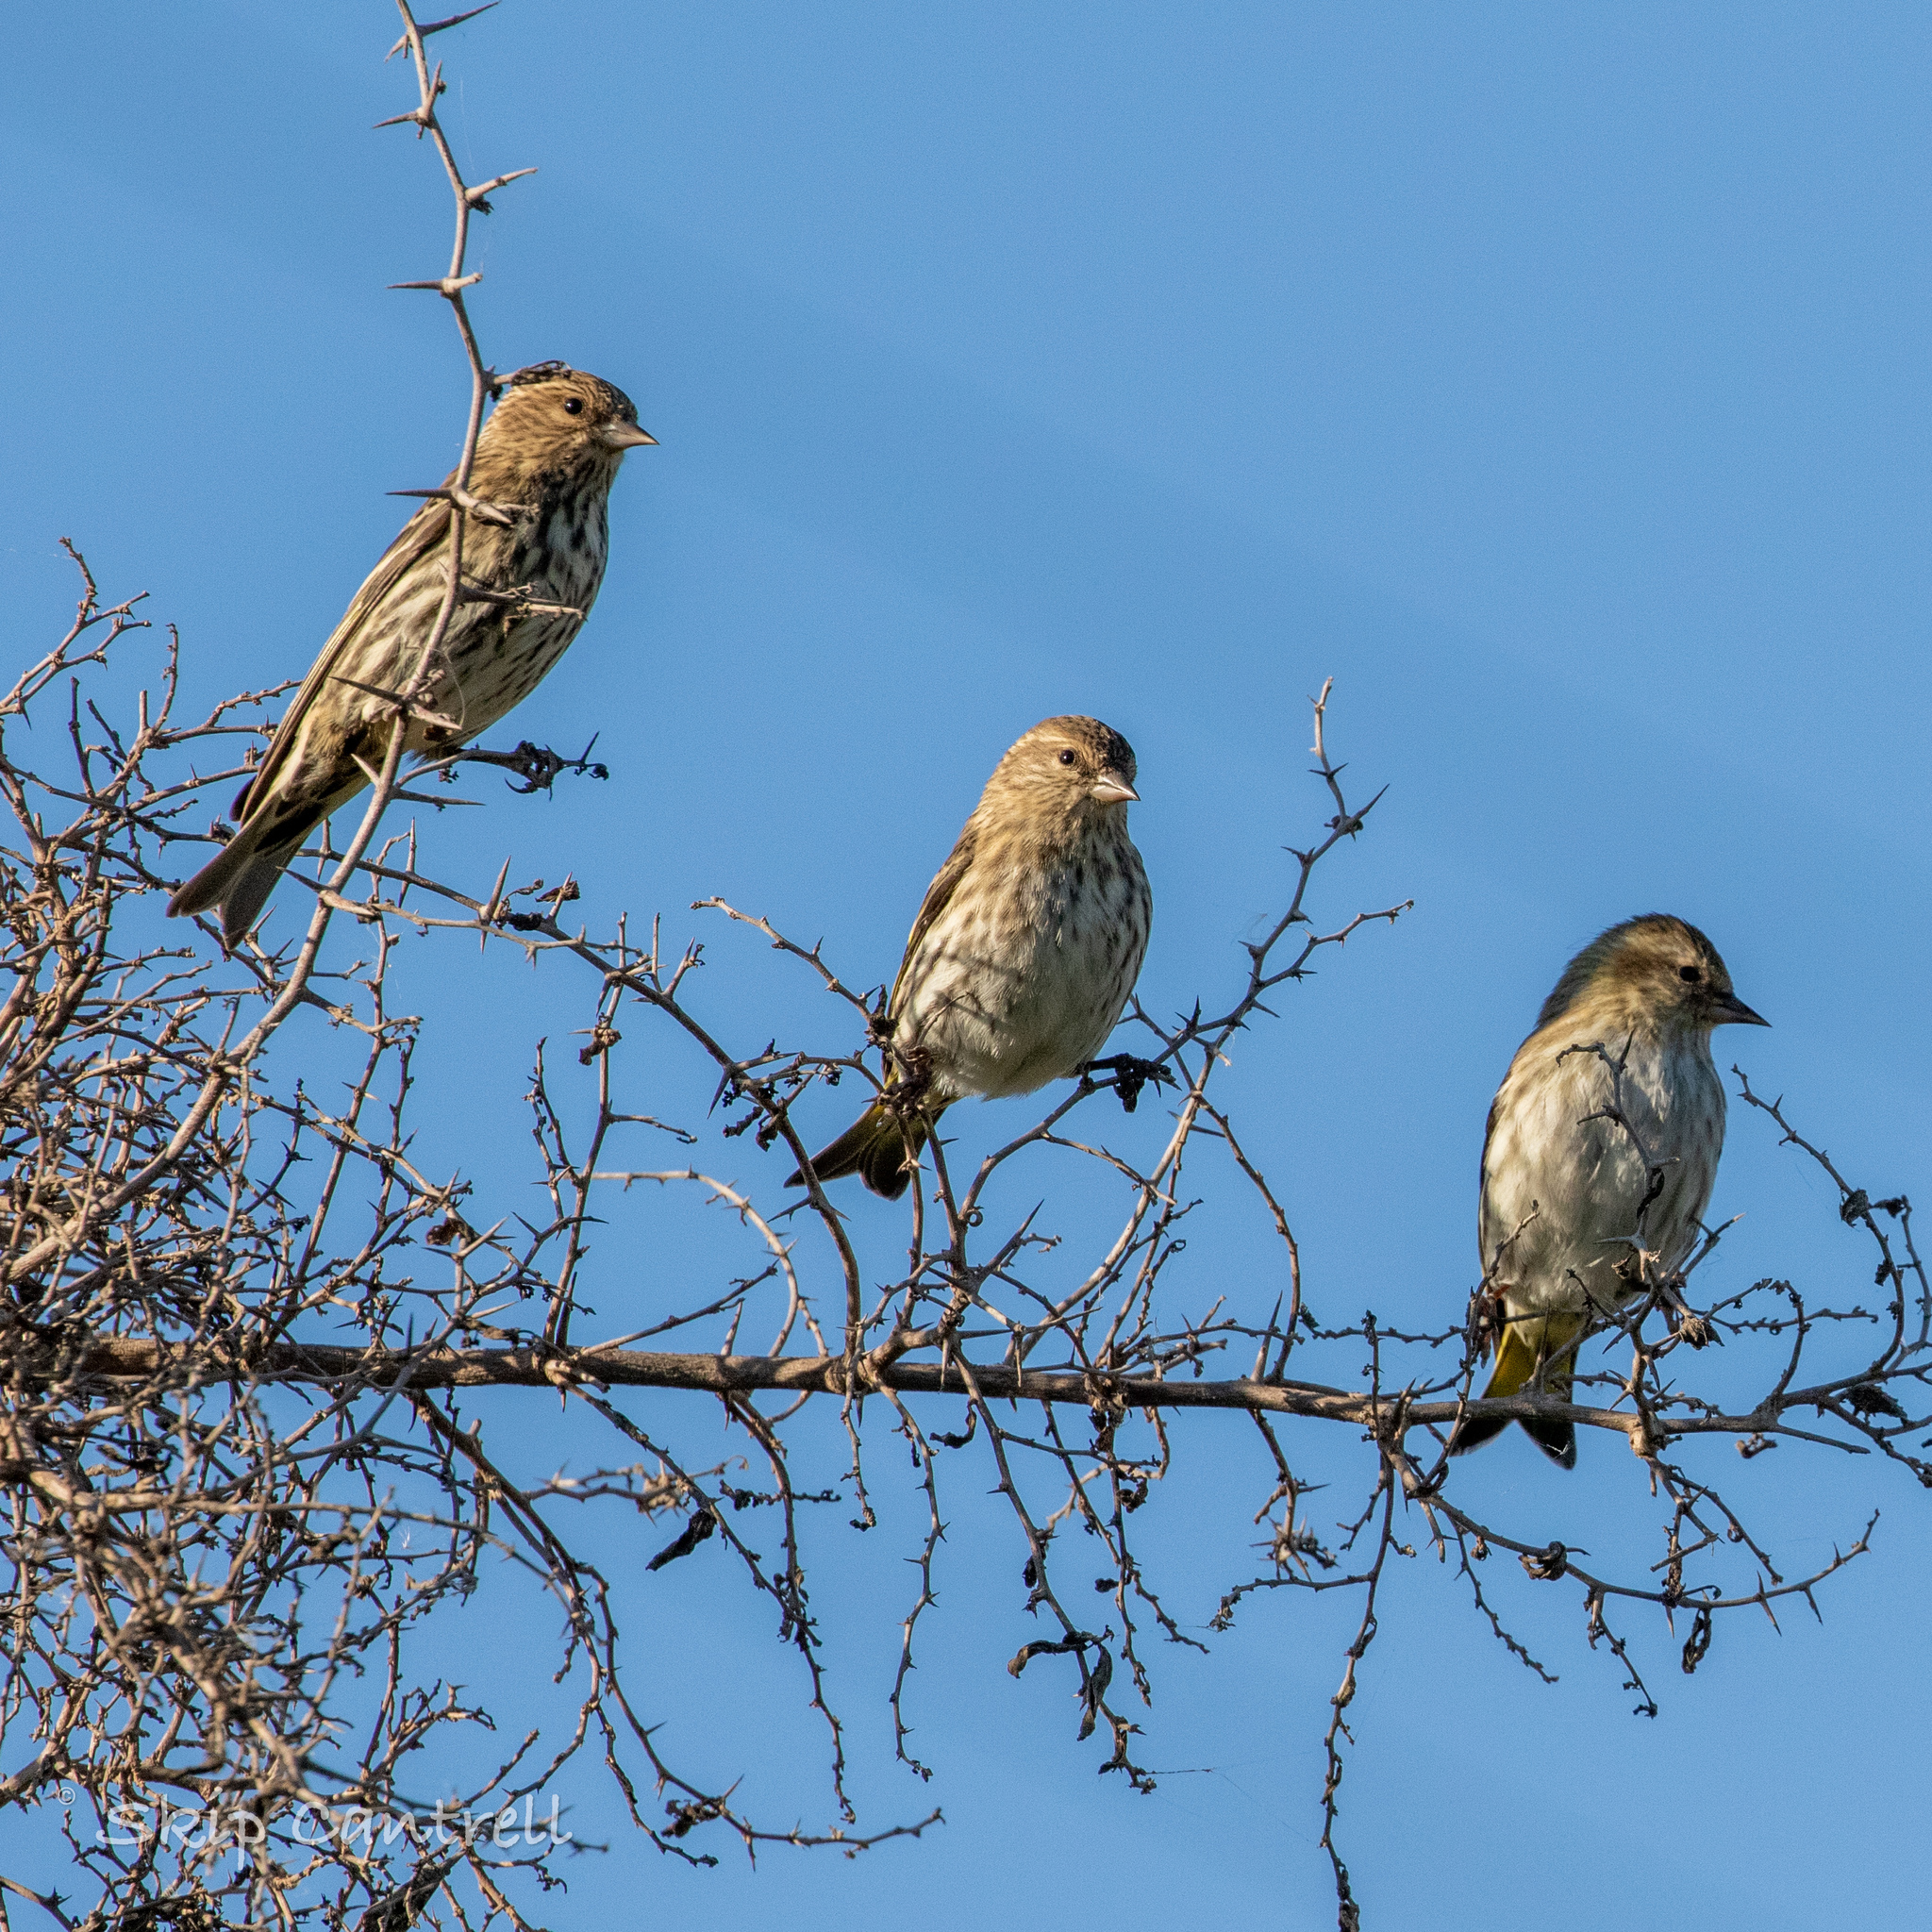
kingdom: Animalia
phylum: Chordata
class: Aves
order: Passeriformes
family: Fringillidae
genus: Spinus
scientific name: Spinus pinus
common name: Pine siskin
